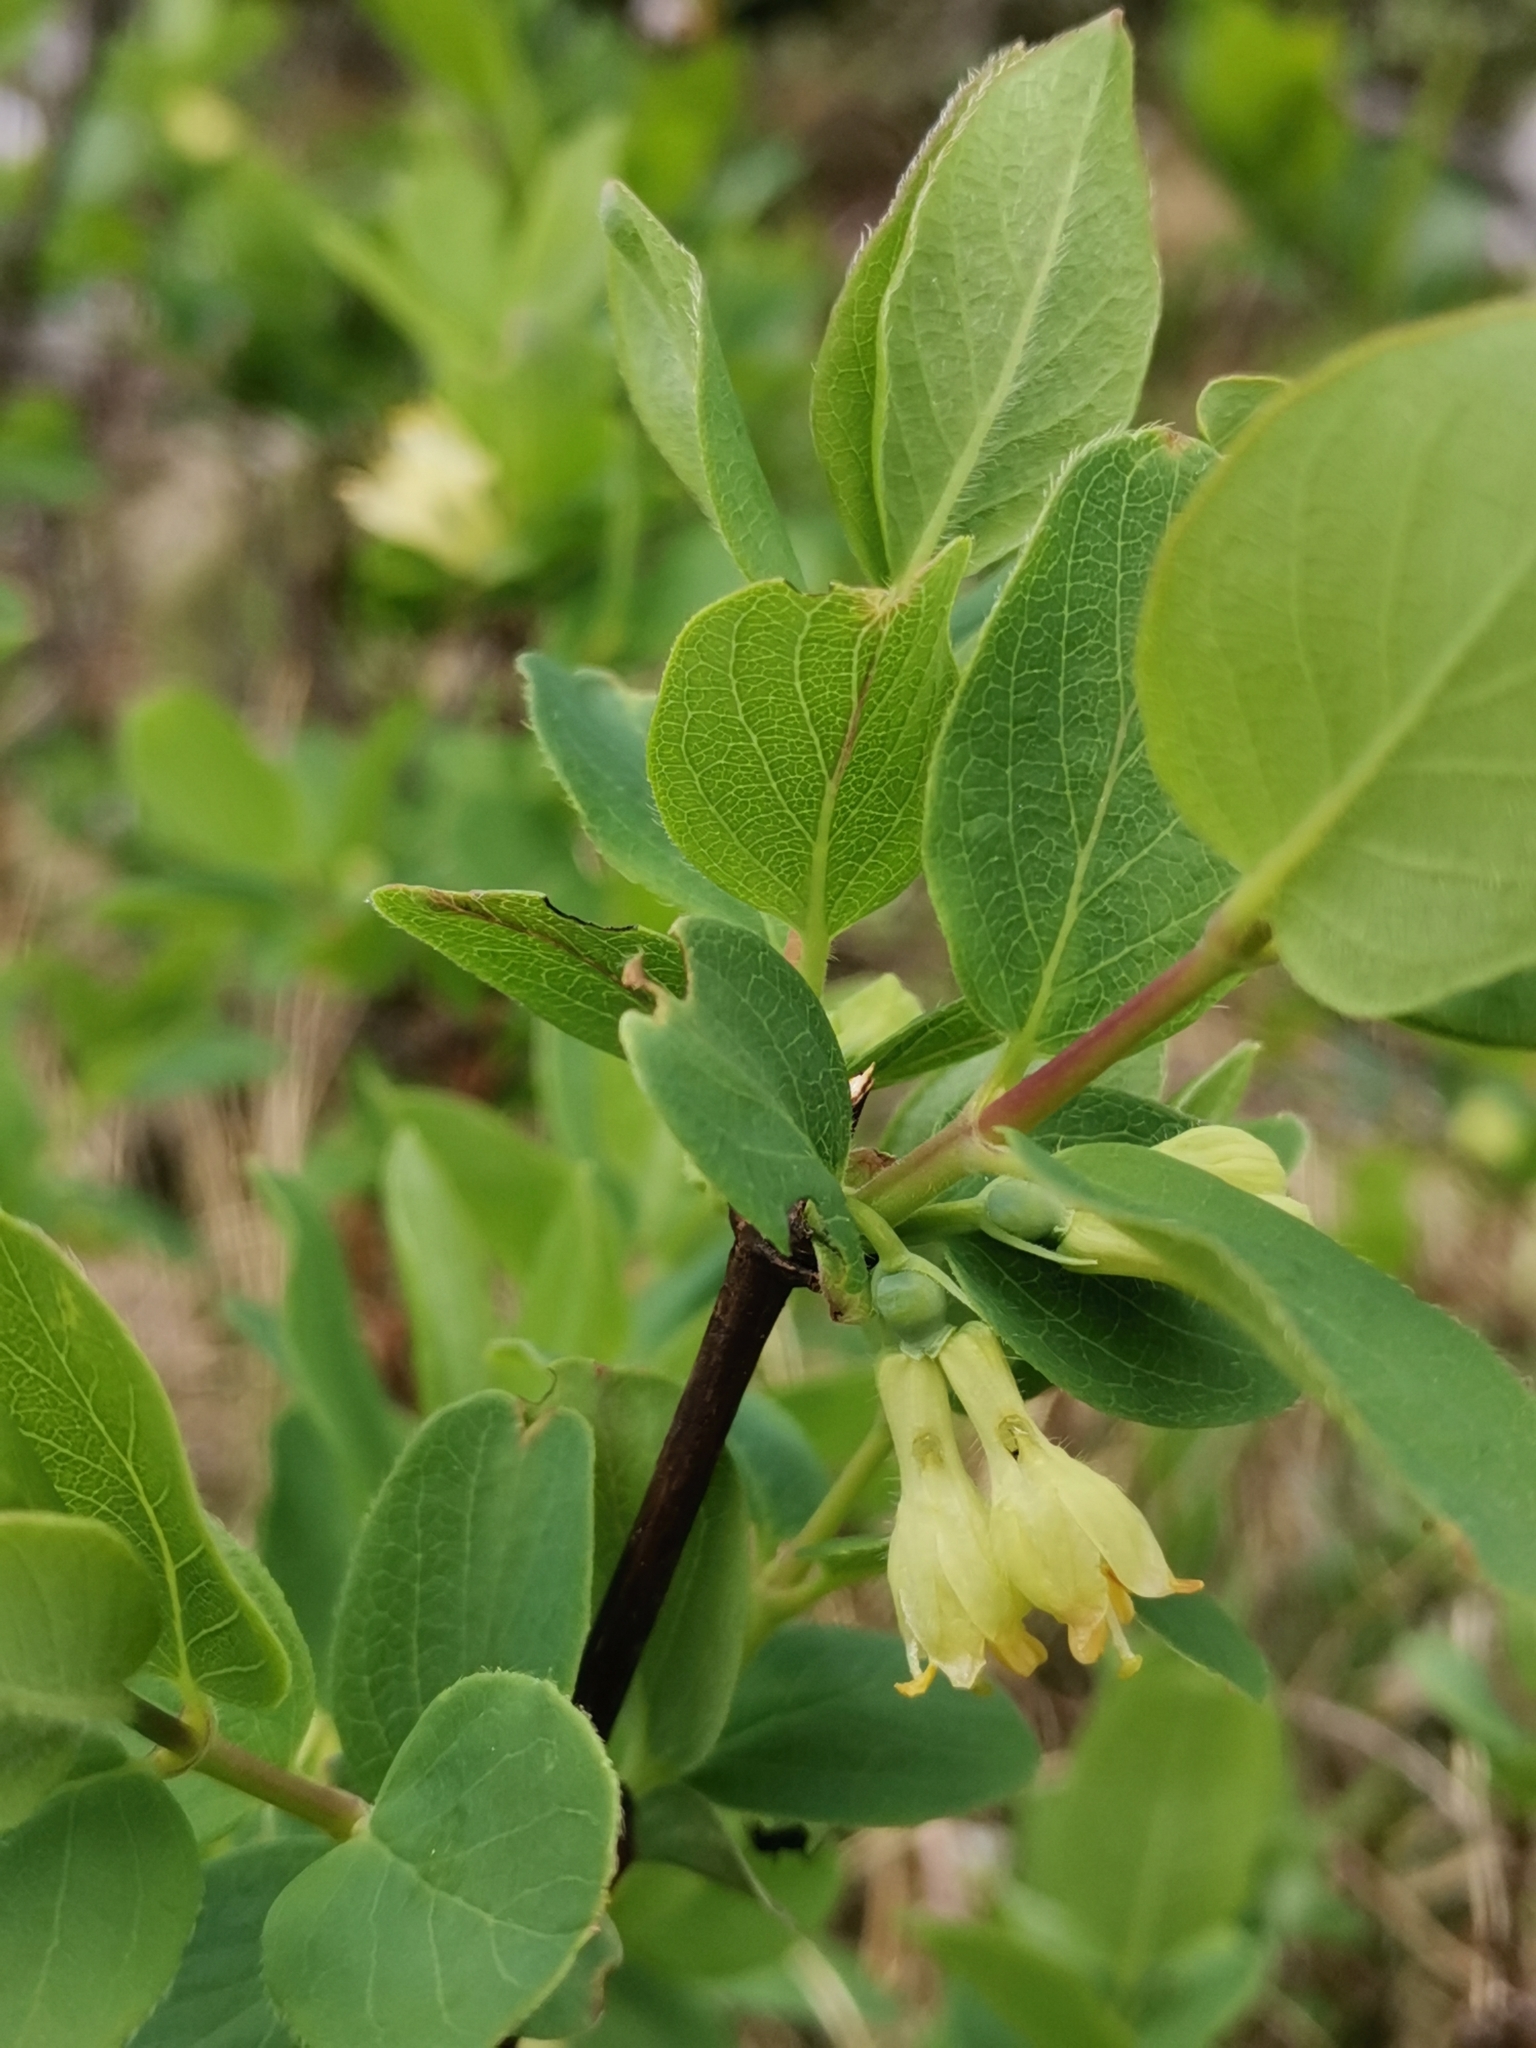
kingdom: Plantae
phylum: Tracheophyta
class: Magnoliopsida
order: Dipsacales
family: Caprifoliaceae
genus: Lonicera
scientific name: Lonicera caerulea
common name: Blue honeysuckle
